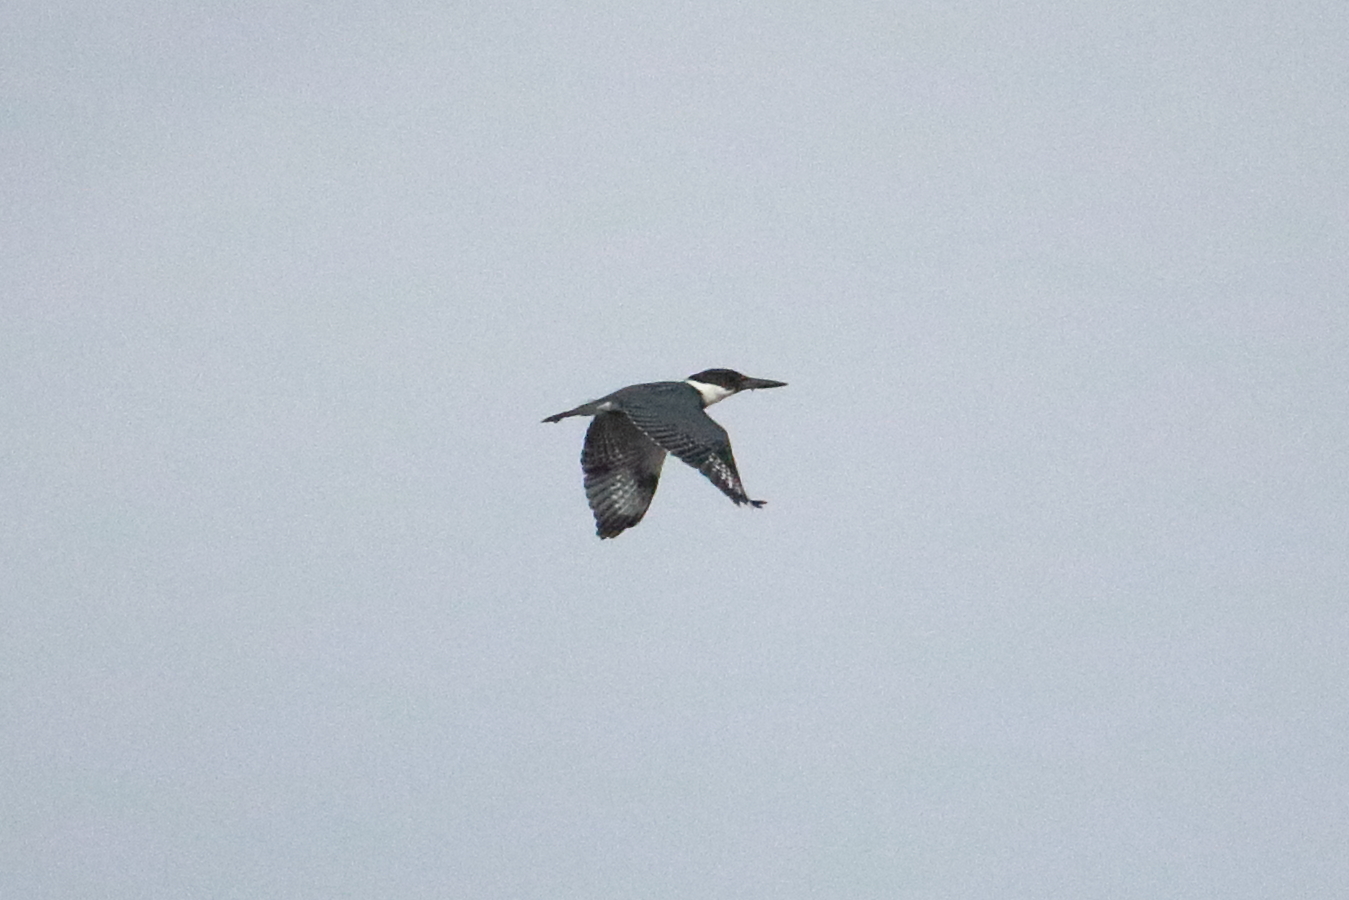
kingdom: Animalia
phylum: Chordata
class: Aves
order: Coraciiformes
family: Alcedinidae
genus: Megaceryle
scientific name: Megaceryle alcyon
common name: Belted kingfisher
